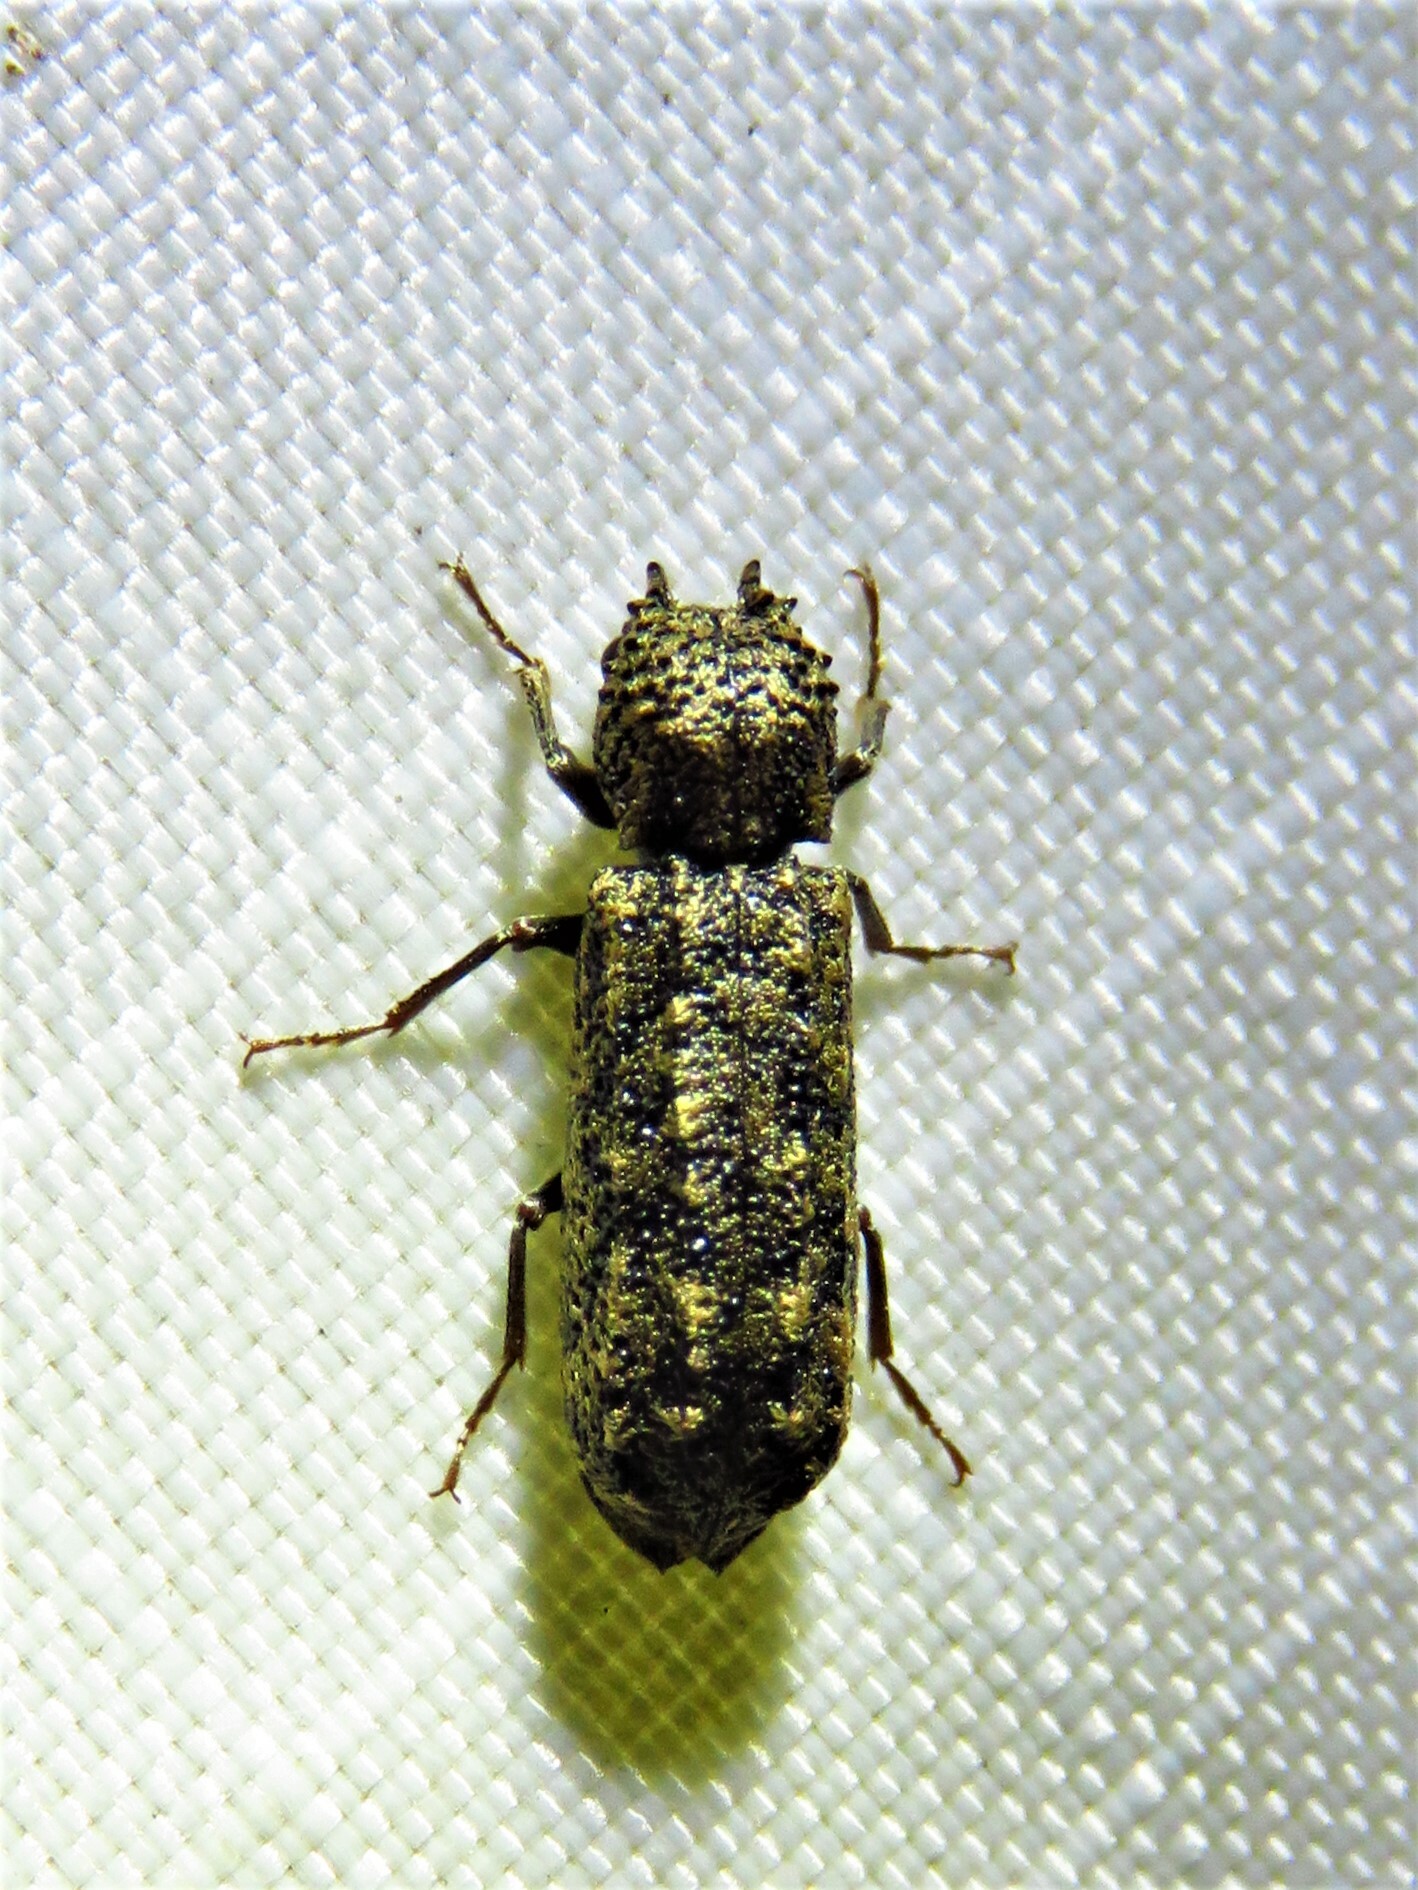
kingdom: Animalia
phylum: Arthropoda
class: Insecta
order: Coleoptera
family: Bostrichidae
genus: Lichenophanes
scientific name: Lichenophanes bicornis
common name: Two-horned powder-post beetle
